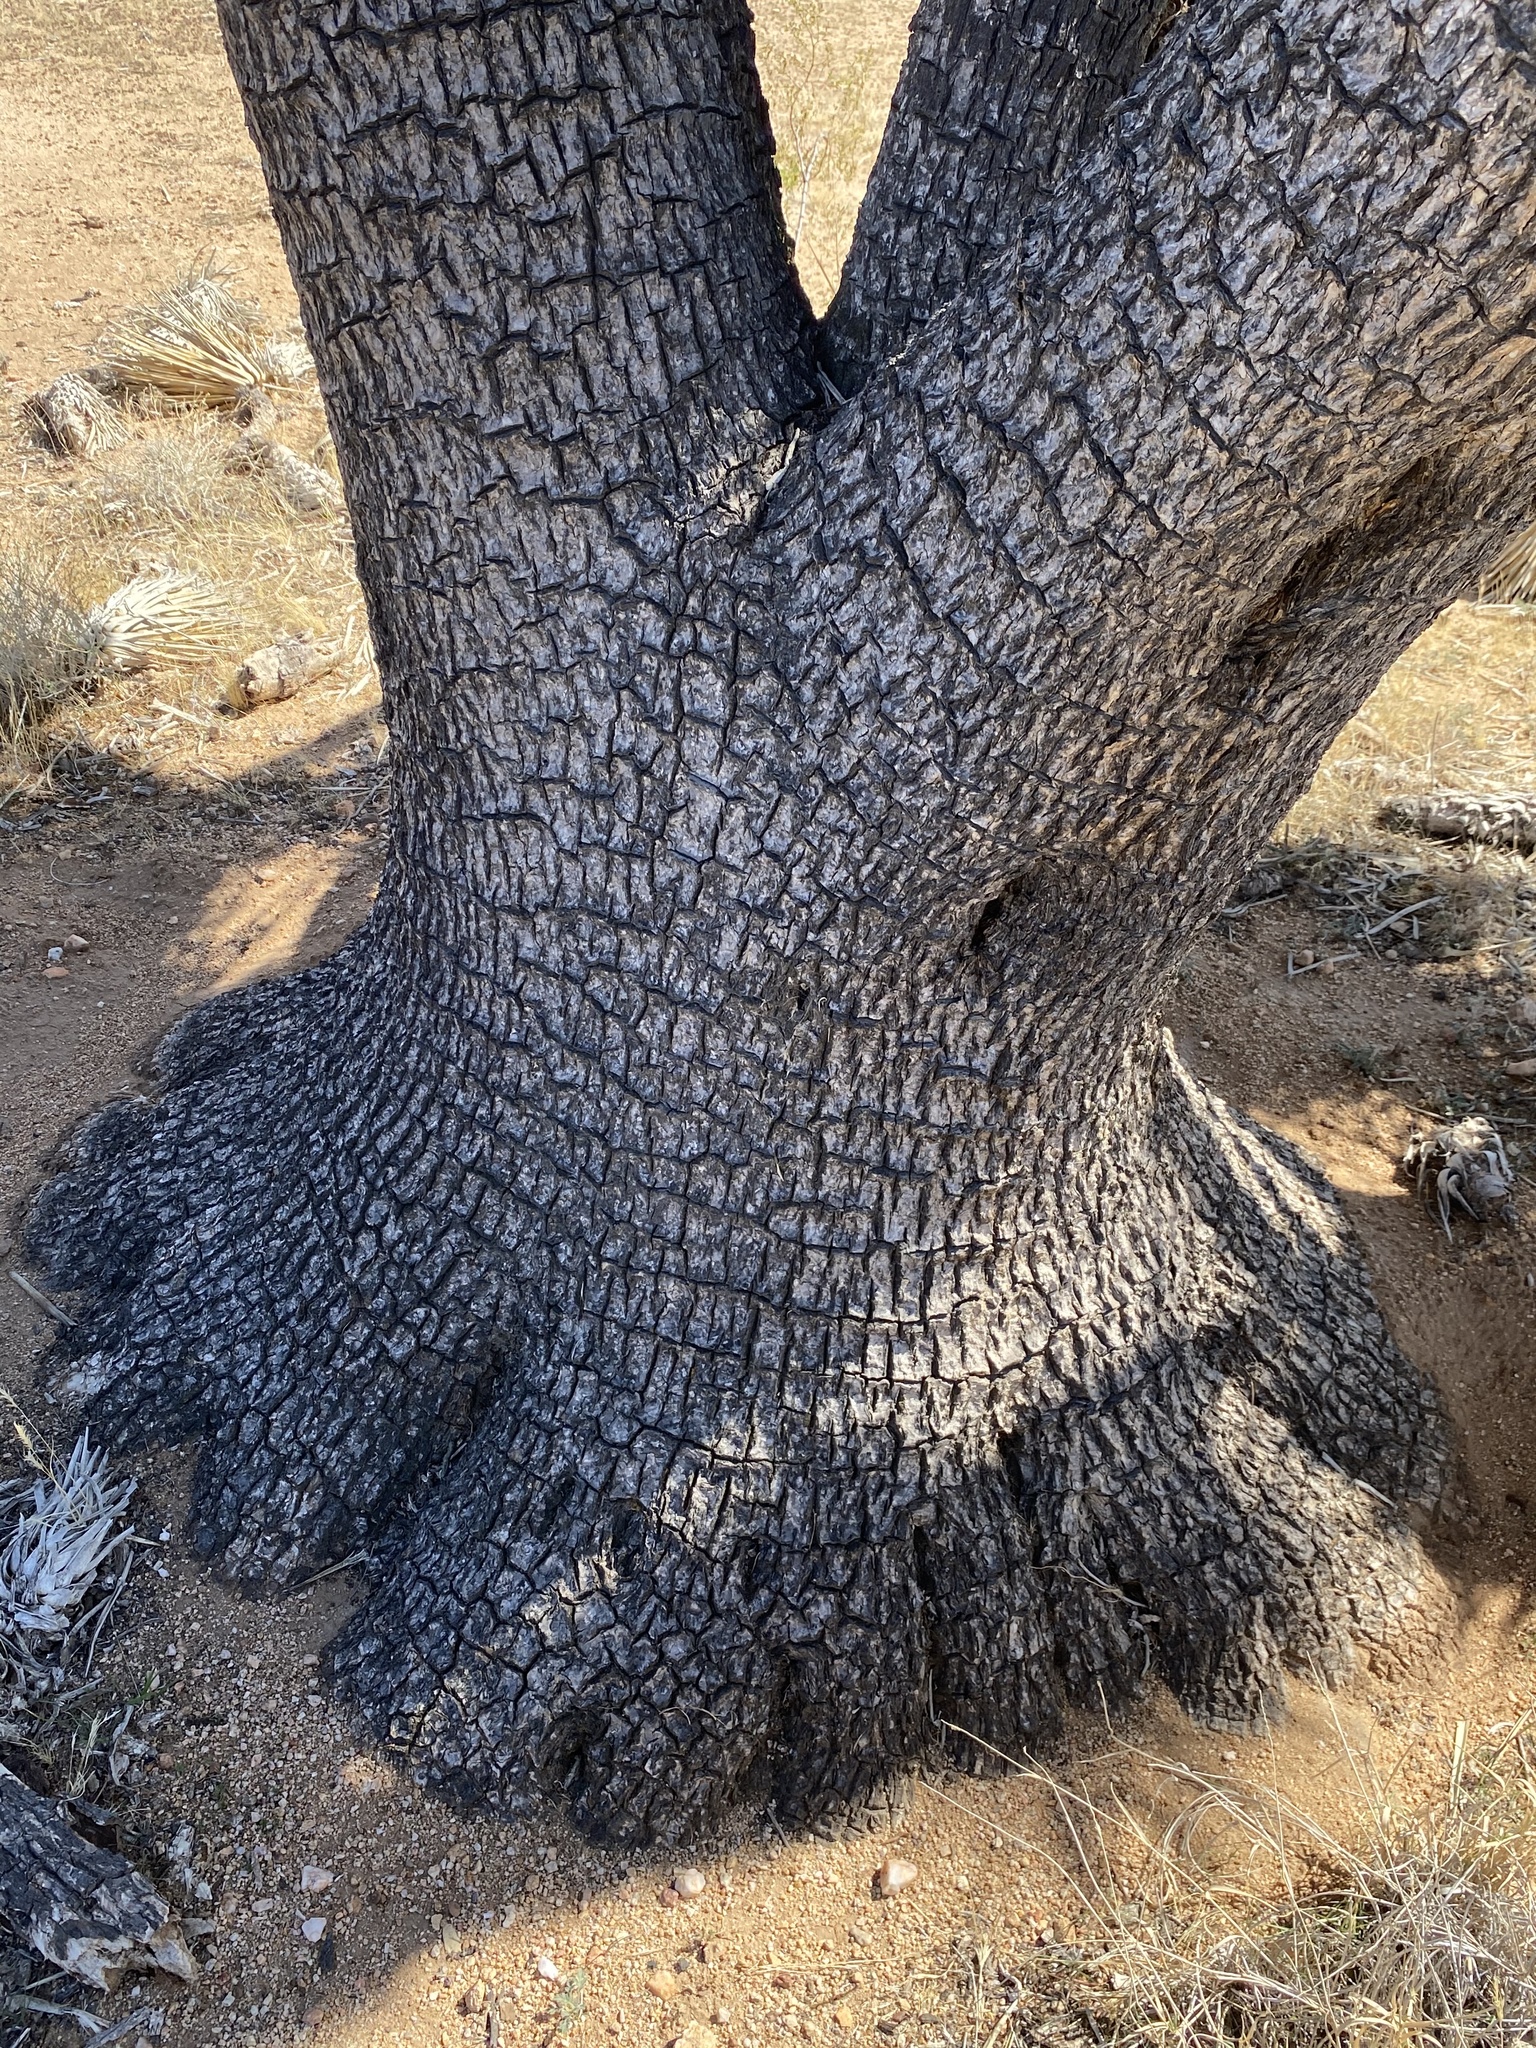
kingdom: Plantae
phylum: Tracheophyta
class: Liliopsida
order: Asparagales
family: Asparagaceae
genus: Yucca
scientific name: Yucca brevifolia
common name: Joshua tree
